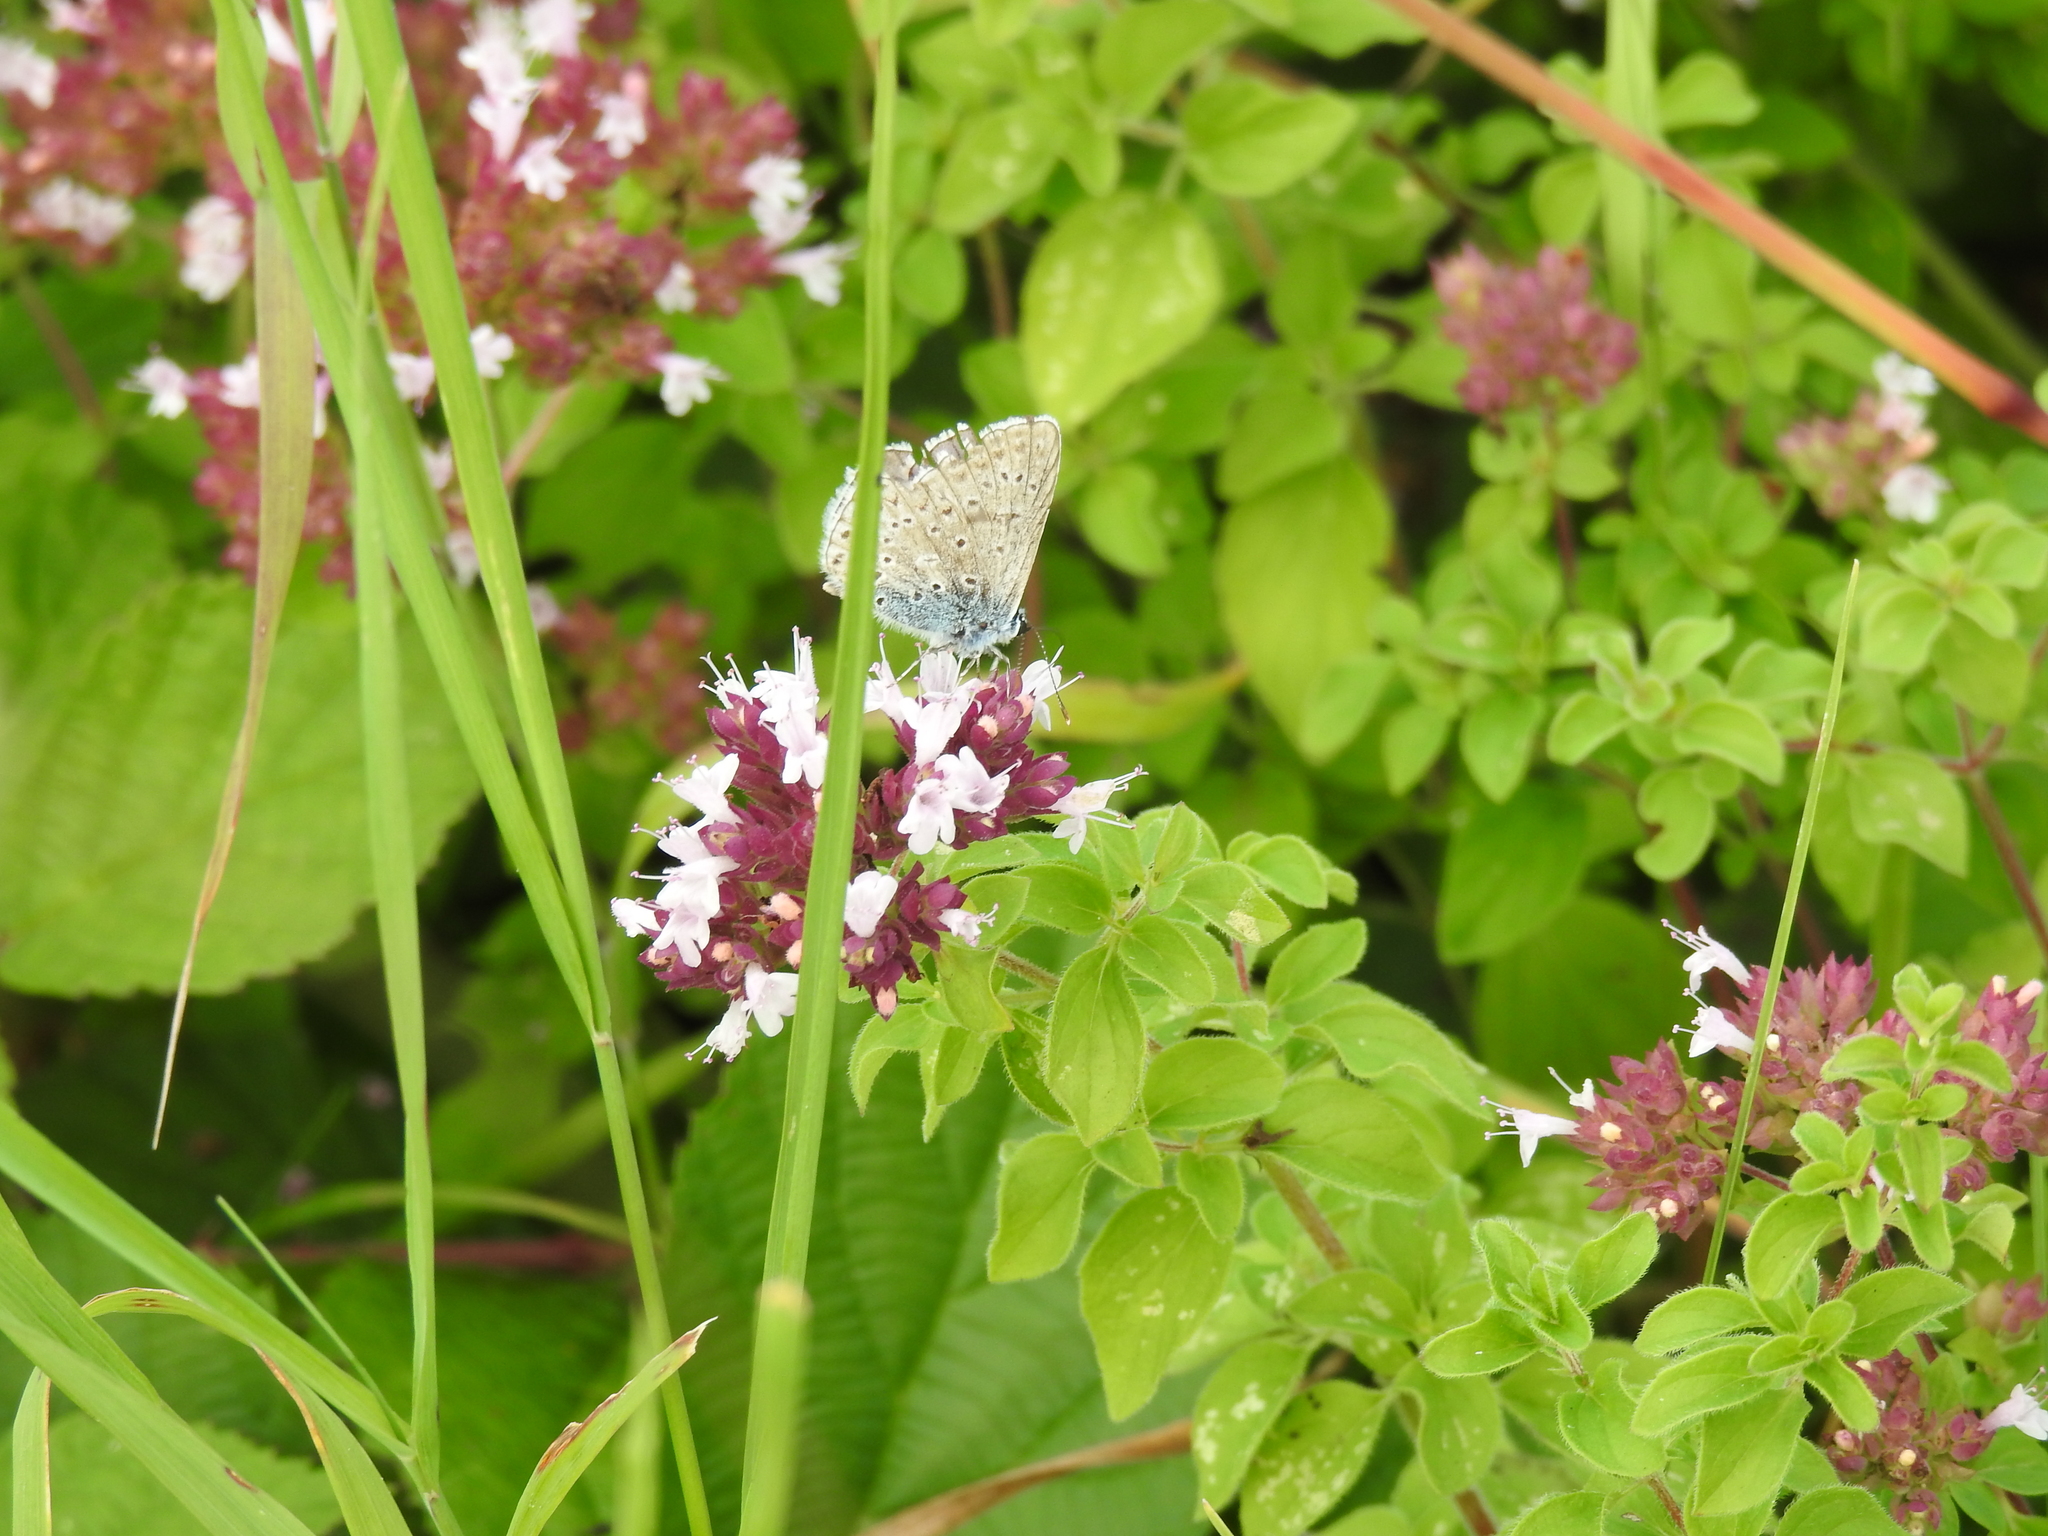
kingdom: Animalia
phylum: Arthropoda
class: Insecta
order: Lepidoptera
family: Lycaenidae
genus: Polyommatus
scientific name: Polyommatus icarus
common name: Common blue
